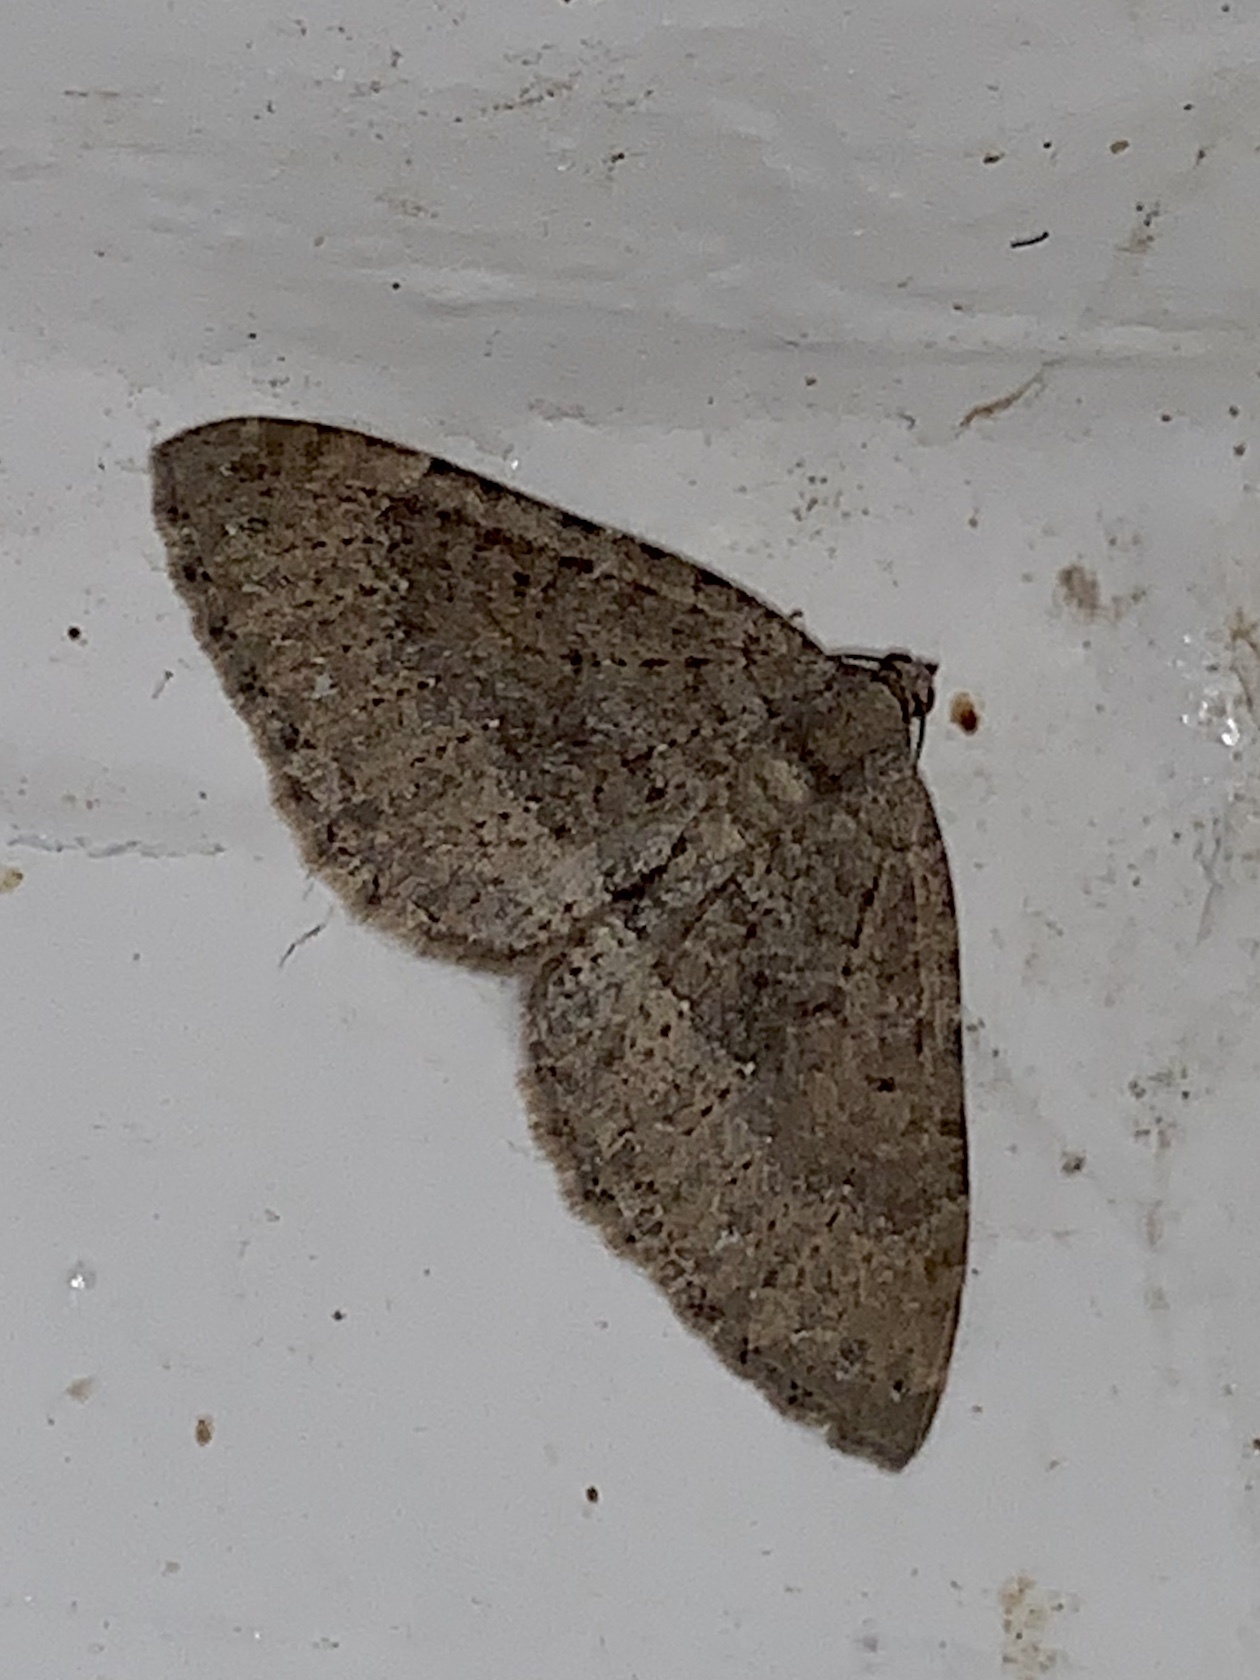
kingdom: Animalia
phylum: Arthropoda
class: Insecta
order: Lepidoptera
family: Geometridae
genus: Monostoecha
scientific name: Monostoecha semipectinata
